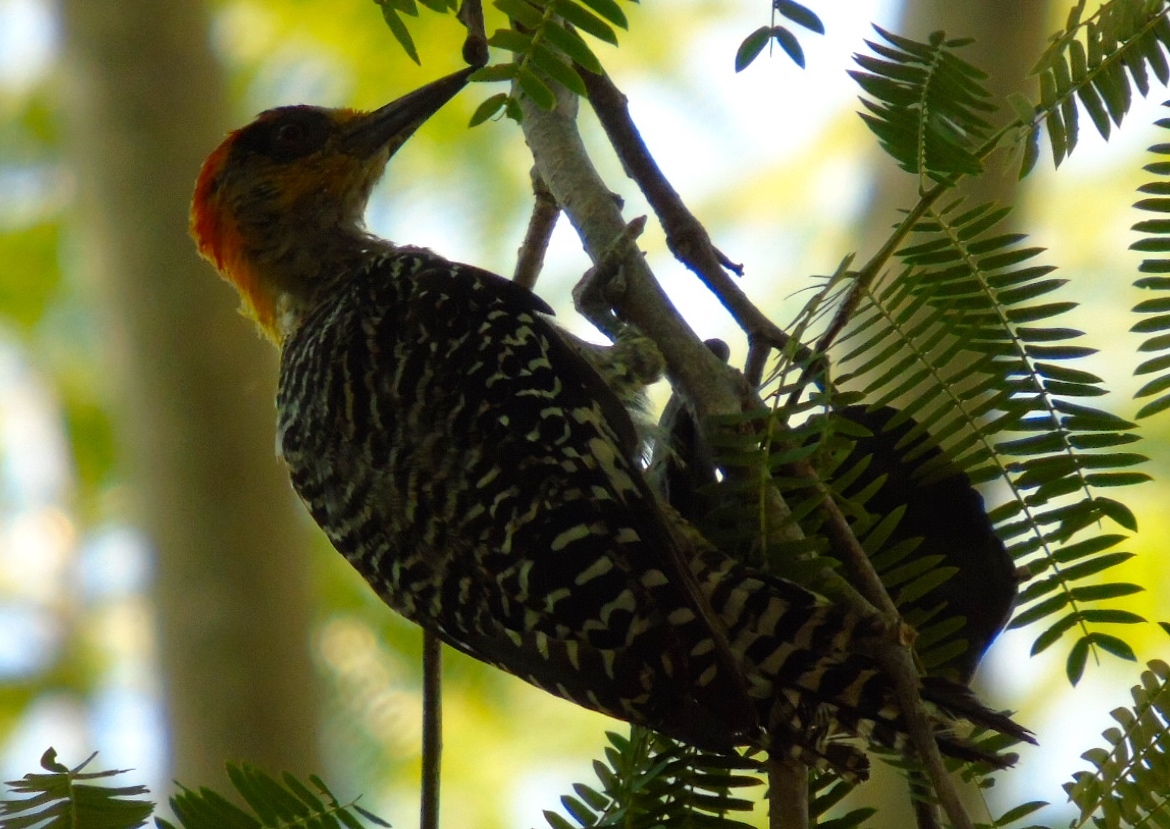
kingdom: Animalia
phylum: Chordata
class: Aves
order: Piciformes
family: Picidae
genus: Melanerpes
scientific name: Melanerpes chrysogenys
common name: Golden-cheeked woodpecker
